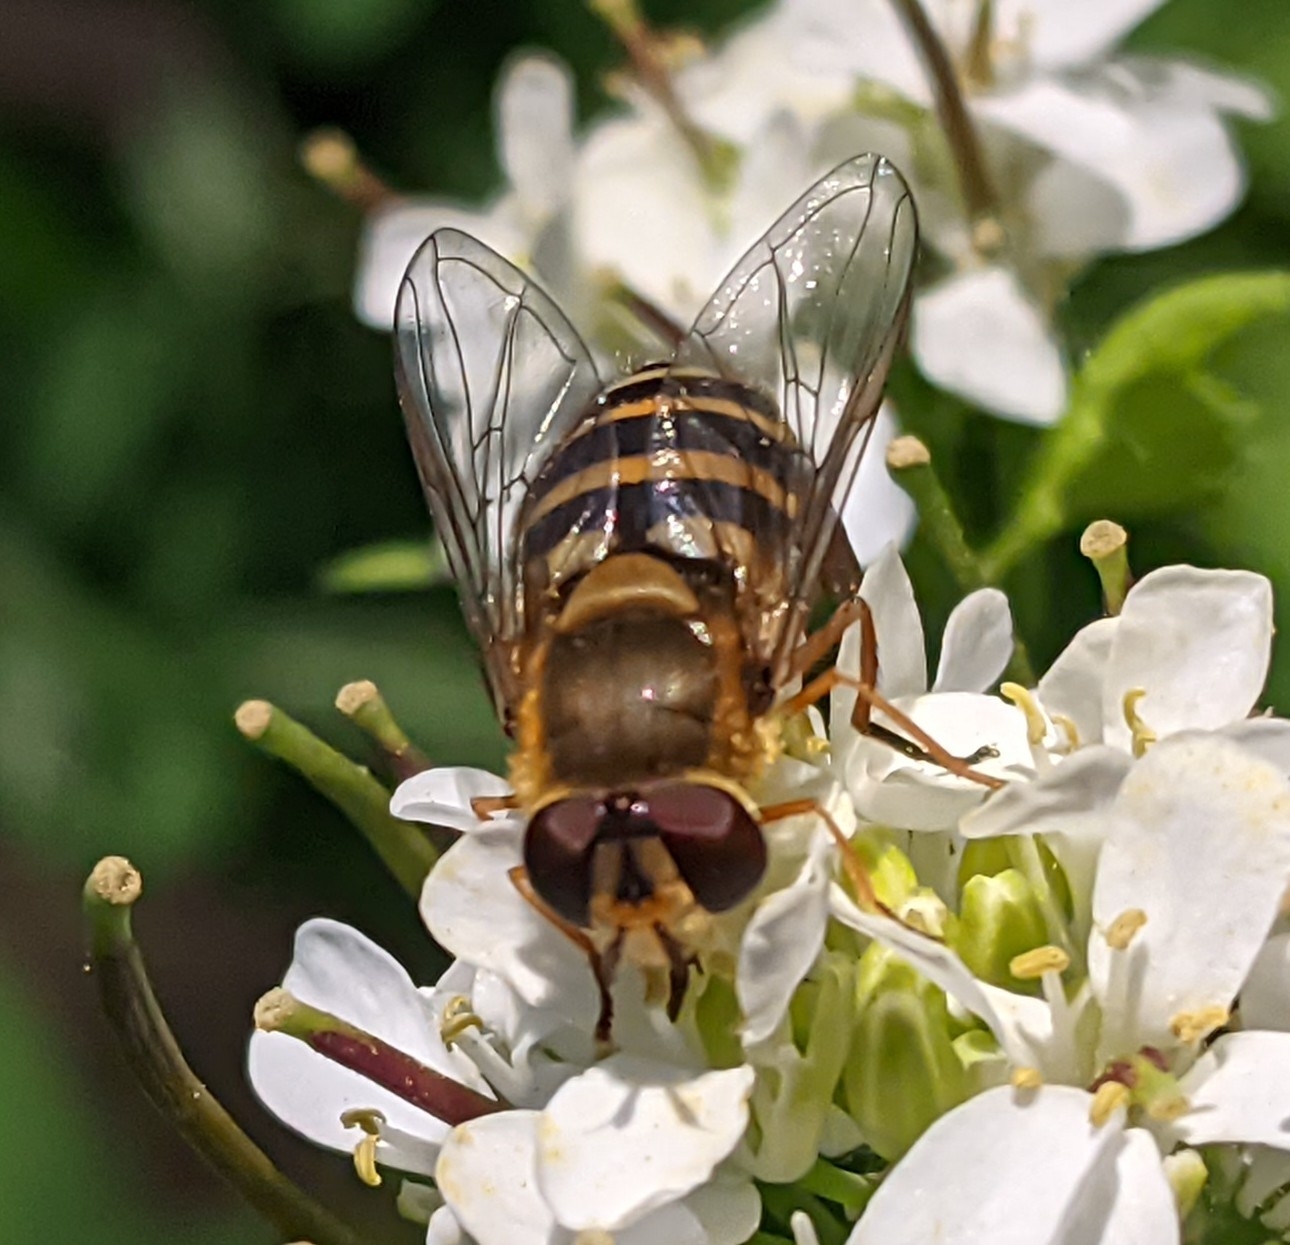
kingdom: Animalia
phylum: Arthropoda
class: Insecta
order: Diptera
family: Syrphidae
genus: Syrphus
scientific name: Syrphus ribesii
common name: Common flower fly
